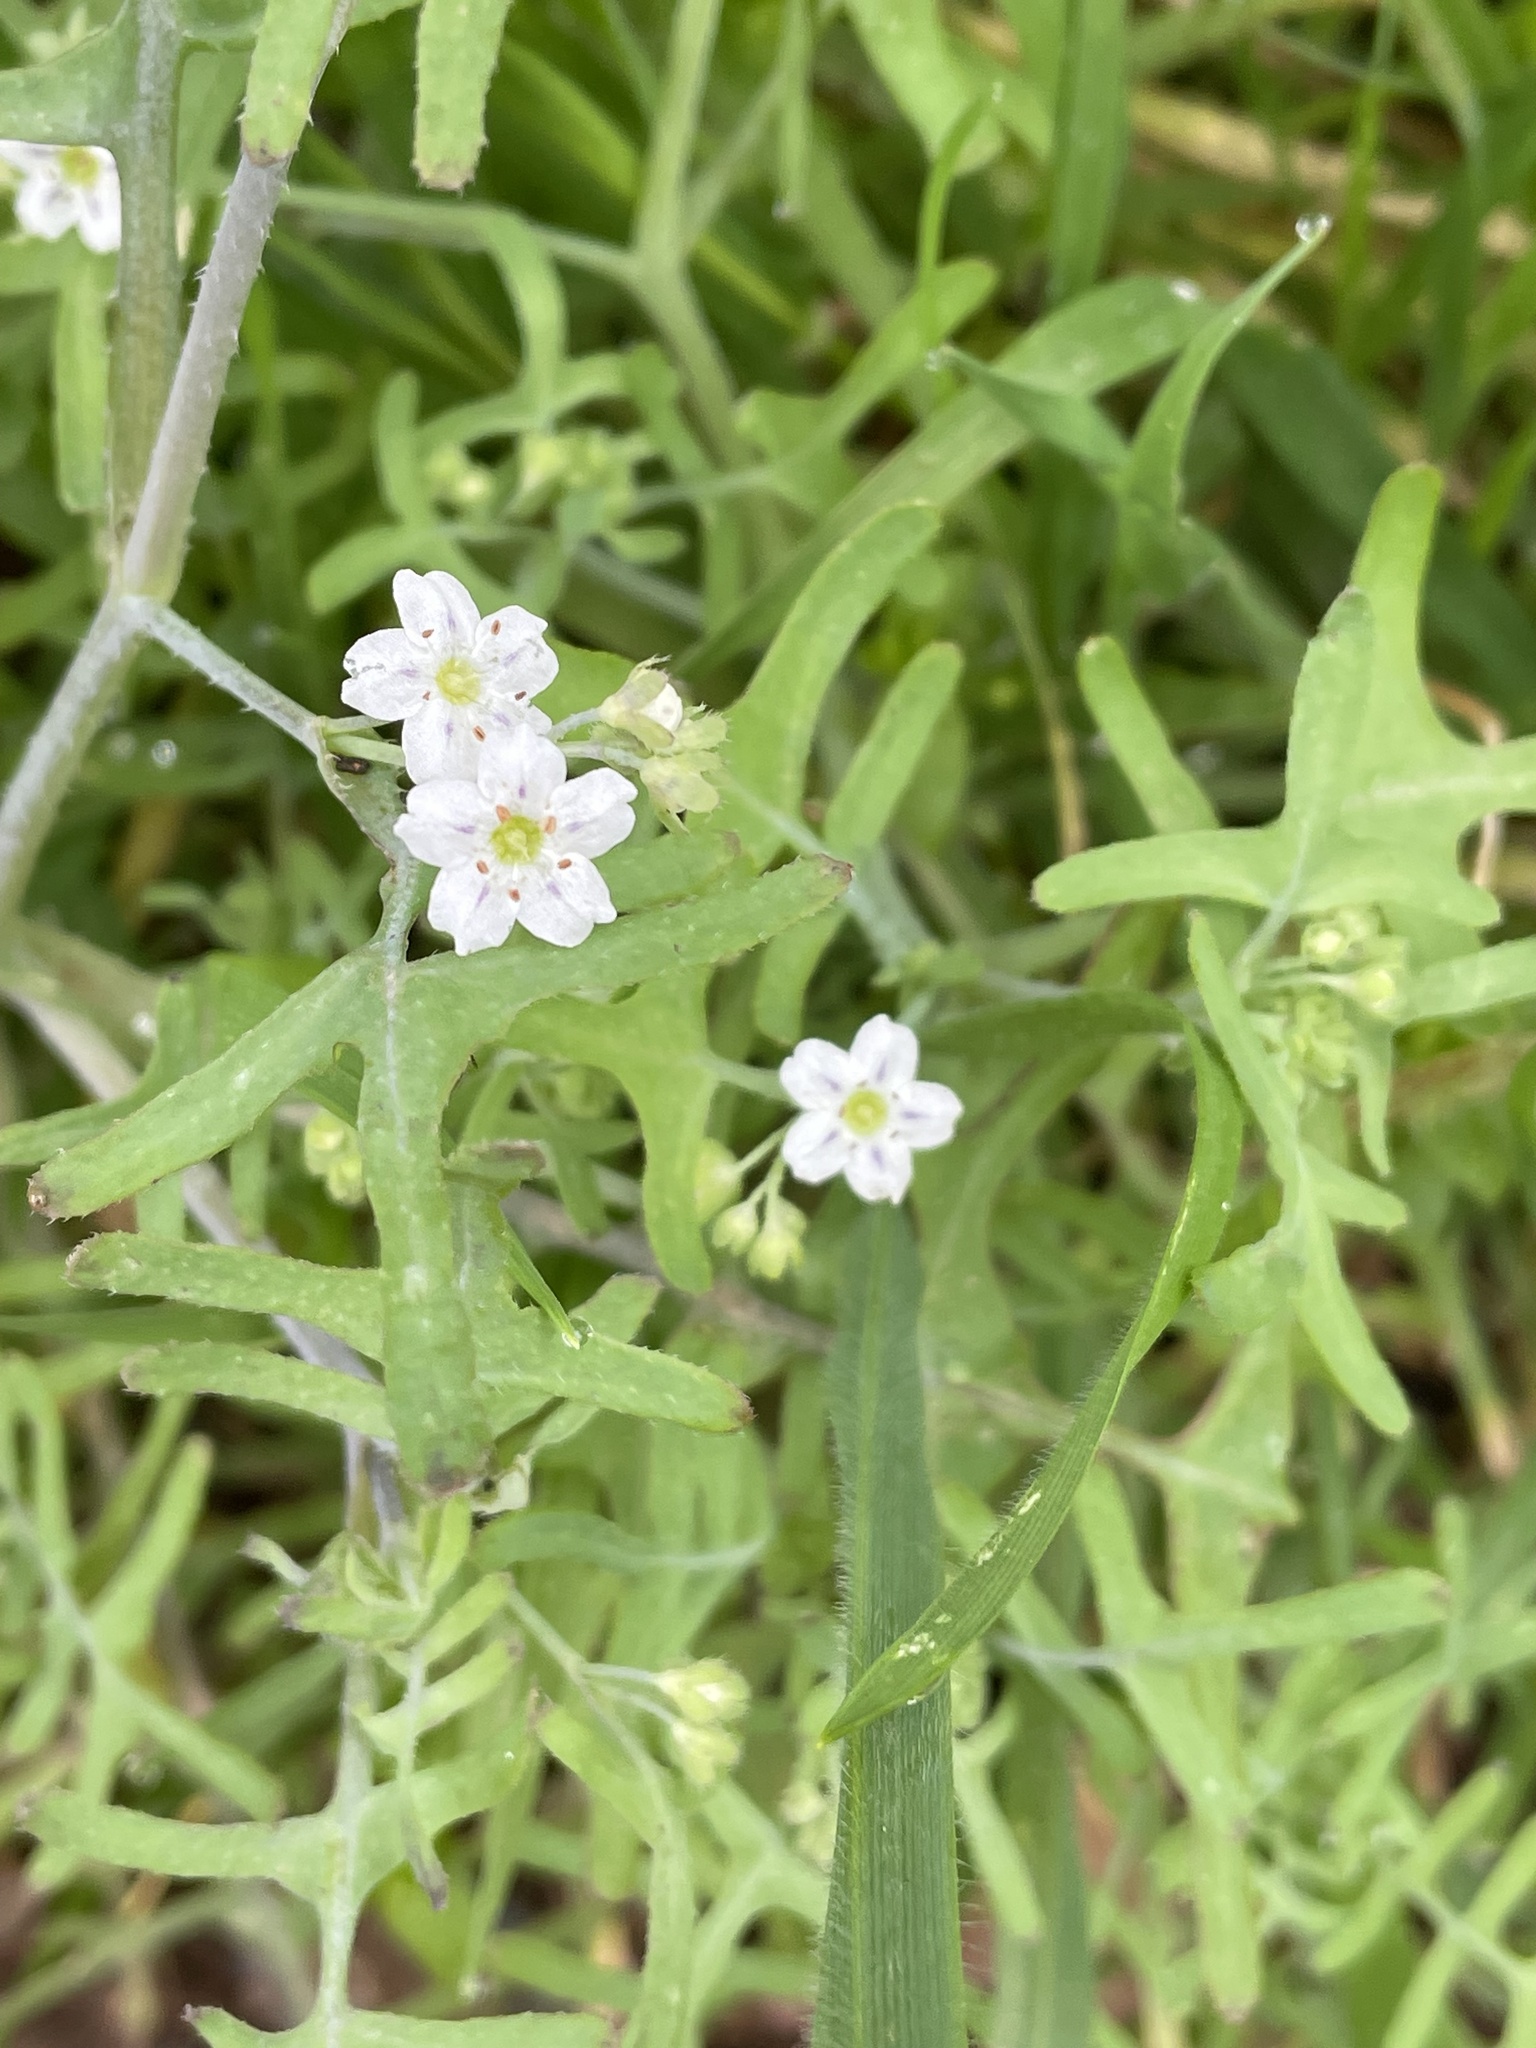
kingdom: Plantae
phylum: Tracheophyta
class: Magnoliopsida
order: Boraginales
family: Hydrophyllaceae
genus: Pholistoma
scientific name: Pholistoma membranaceum
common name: White fiesta-flower
